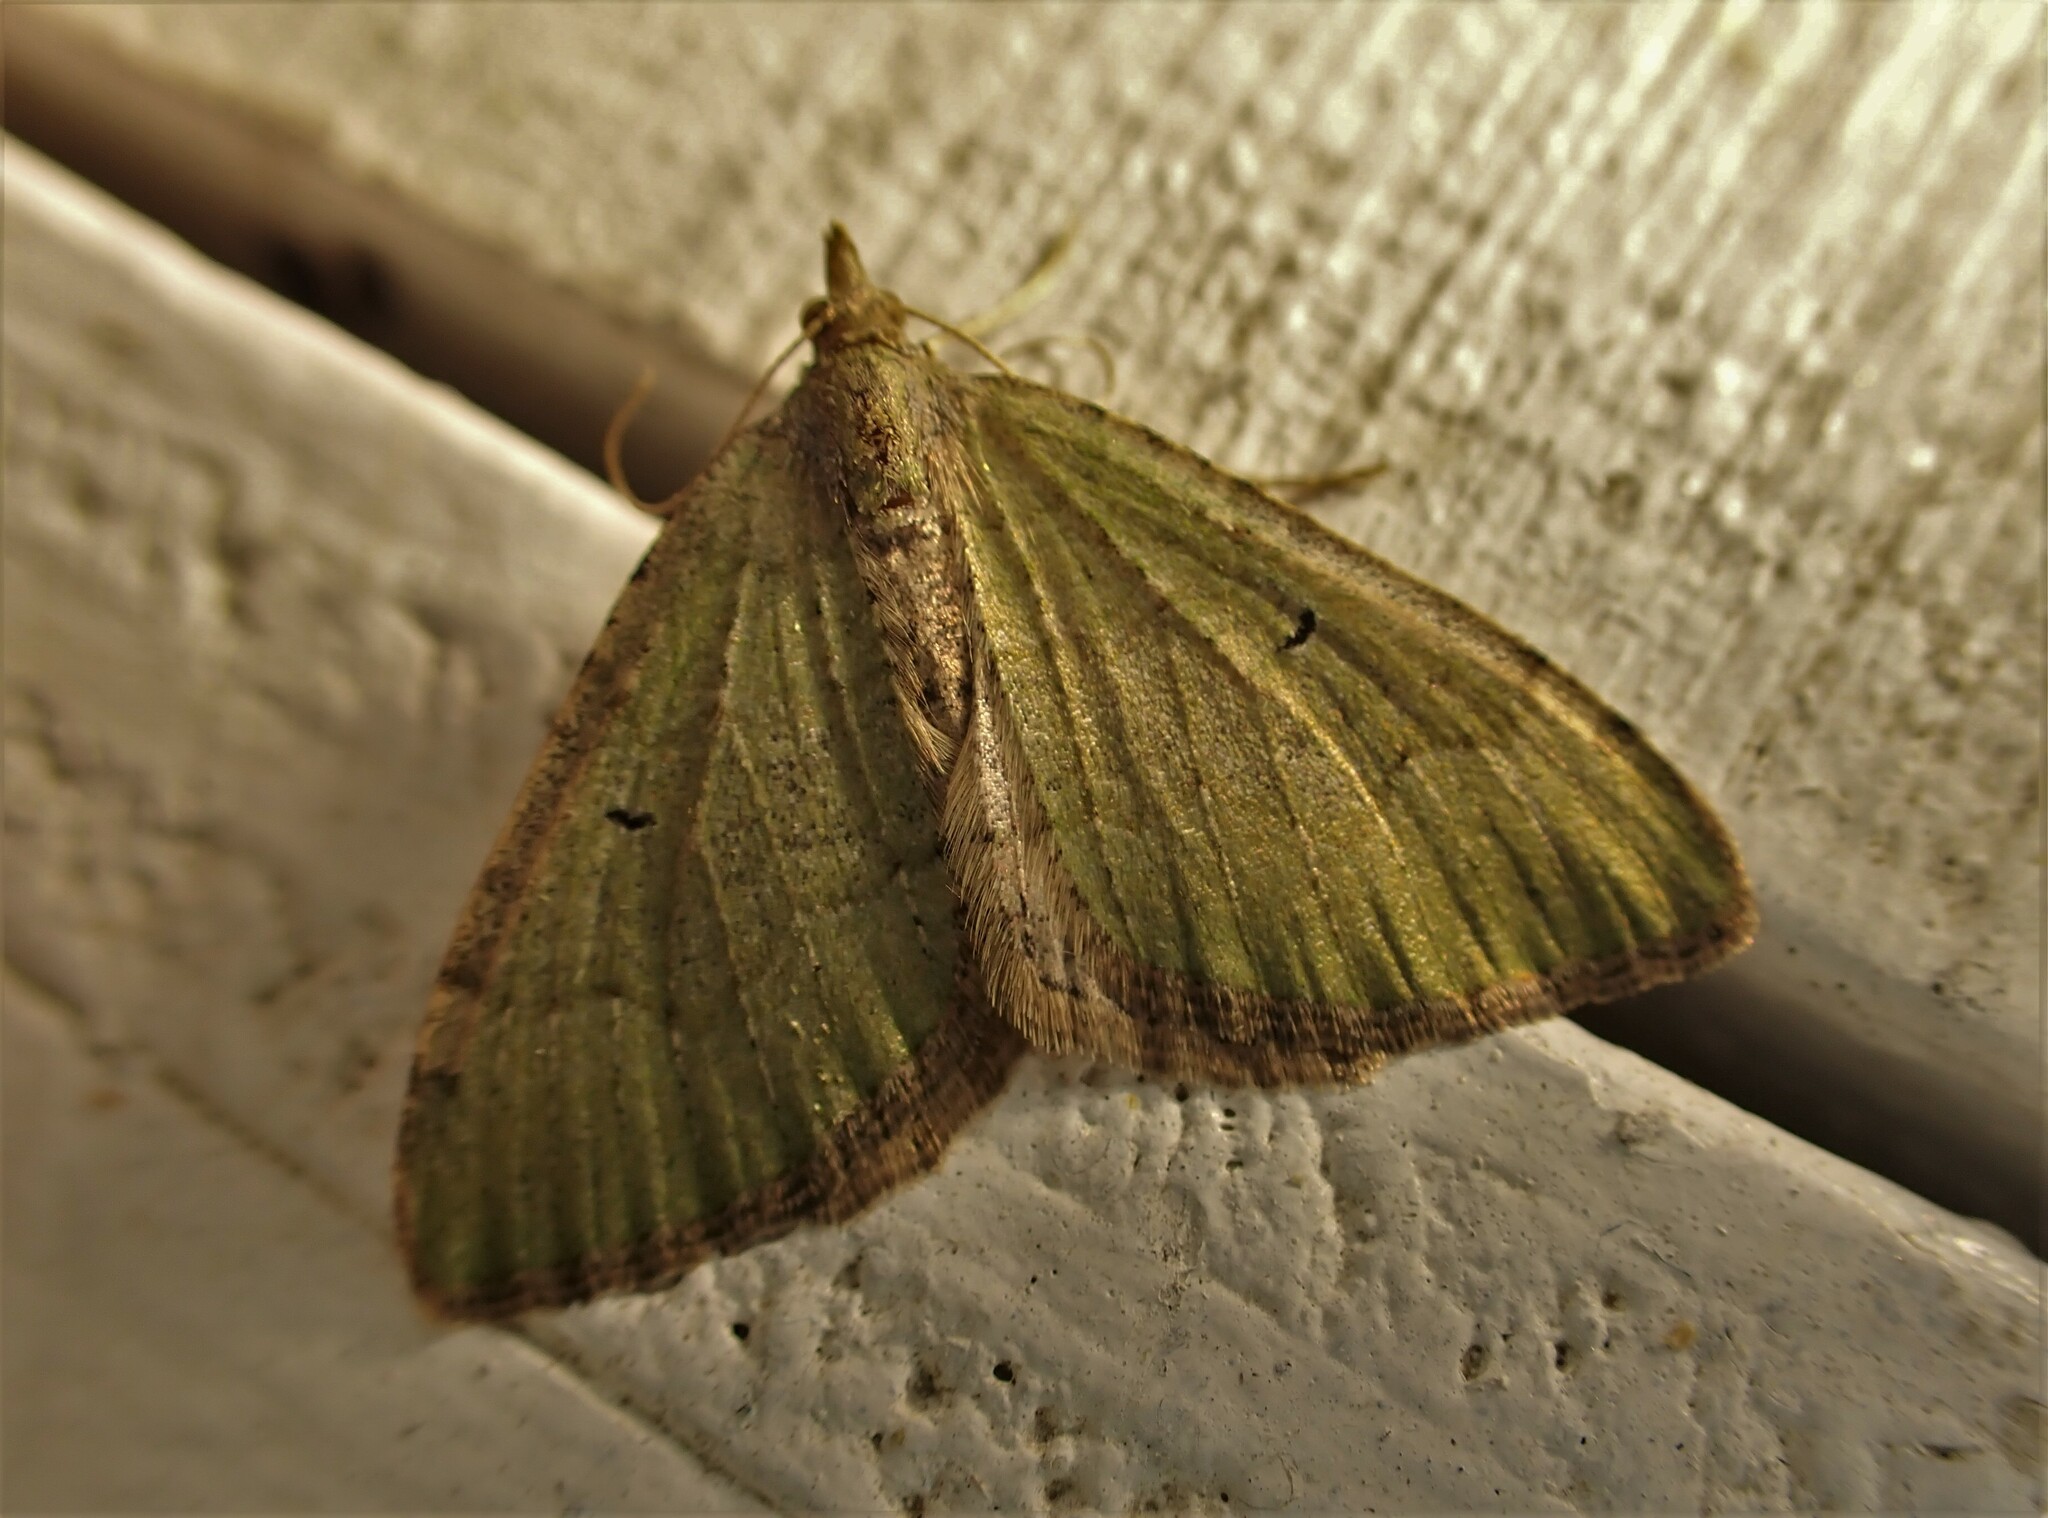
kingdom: Animalia
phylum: Arthropoda
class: Insecta
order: Lepidoptera
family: Geometridae
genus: Epyaxa
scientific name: Epyaxa rosearia
